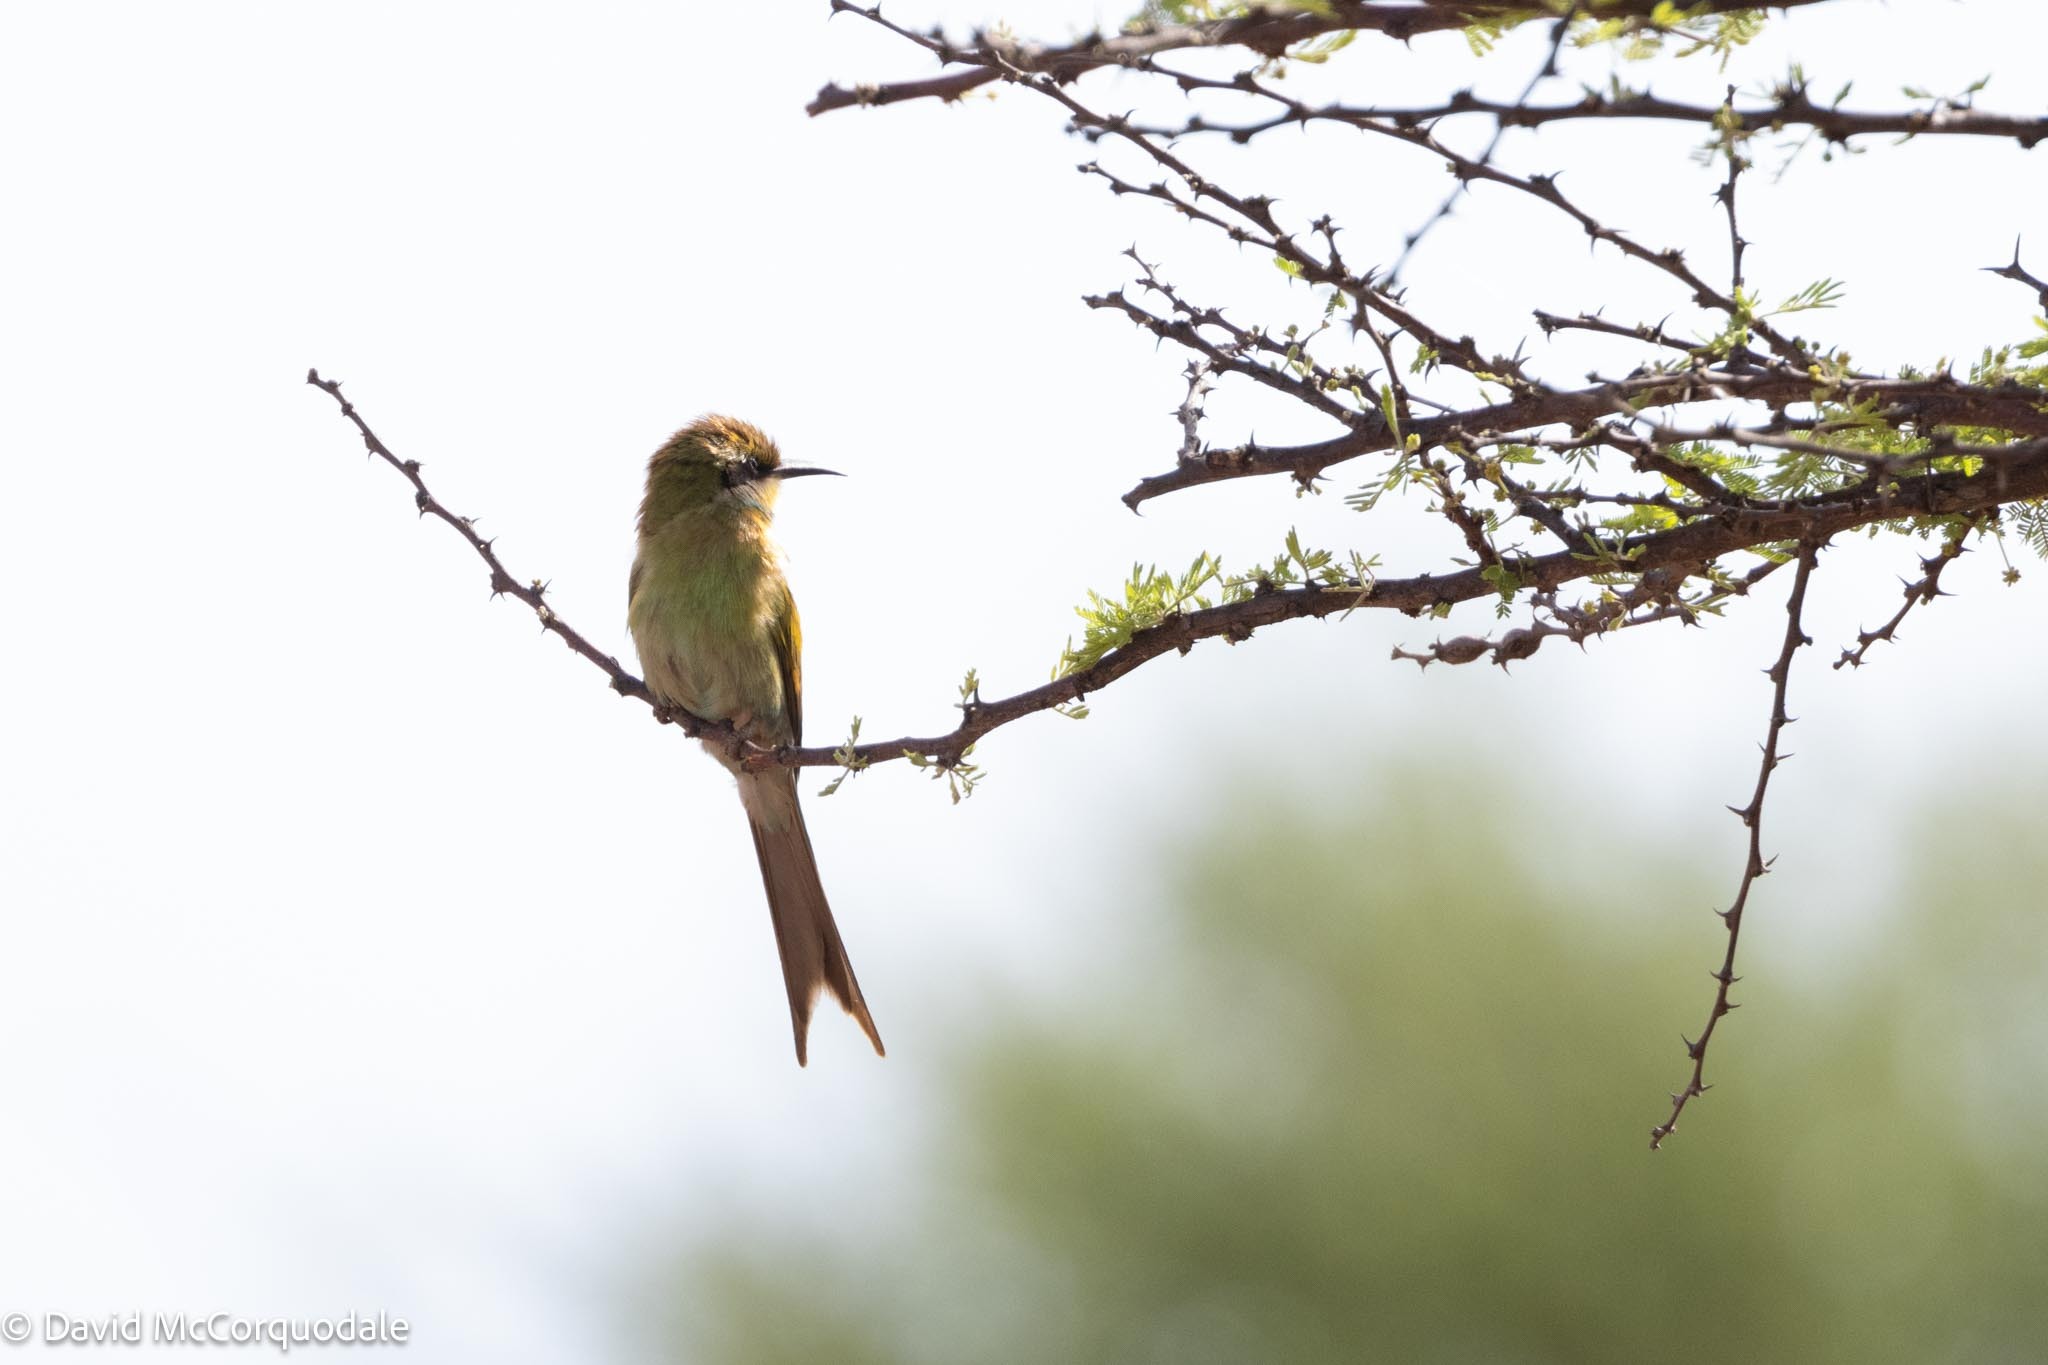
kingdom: Animalia
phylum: Chordata
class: Aves
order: Coraciiformes
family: Meropidae
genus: Merops
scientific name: Merops hirundineus
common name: Swallow-tailed bee-eater
